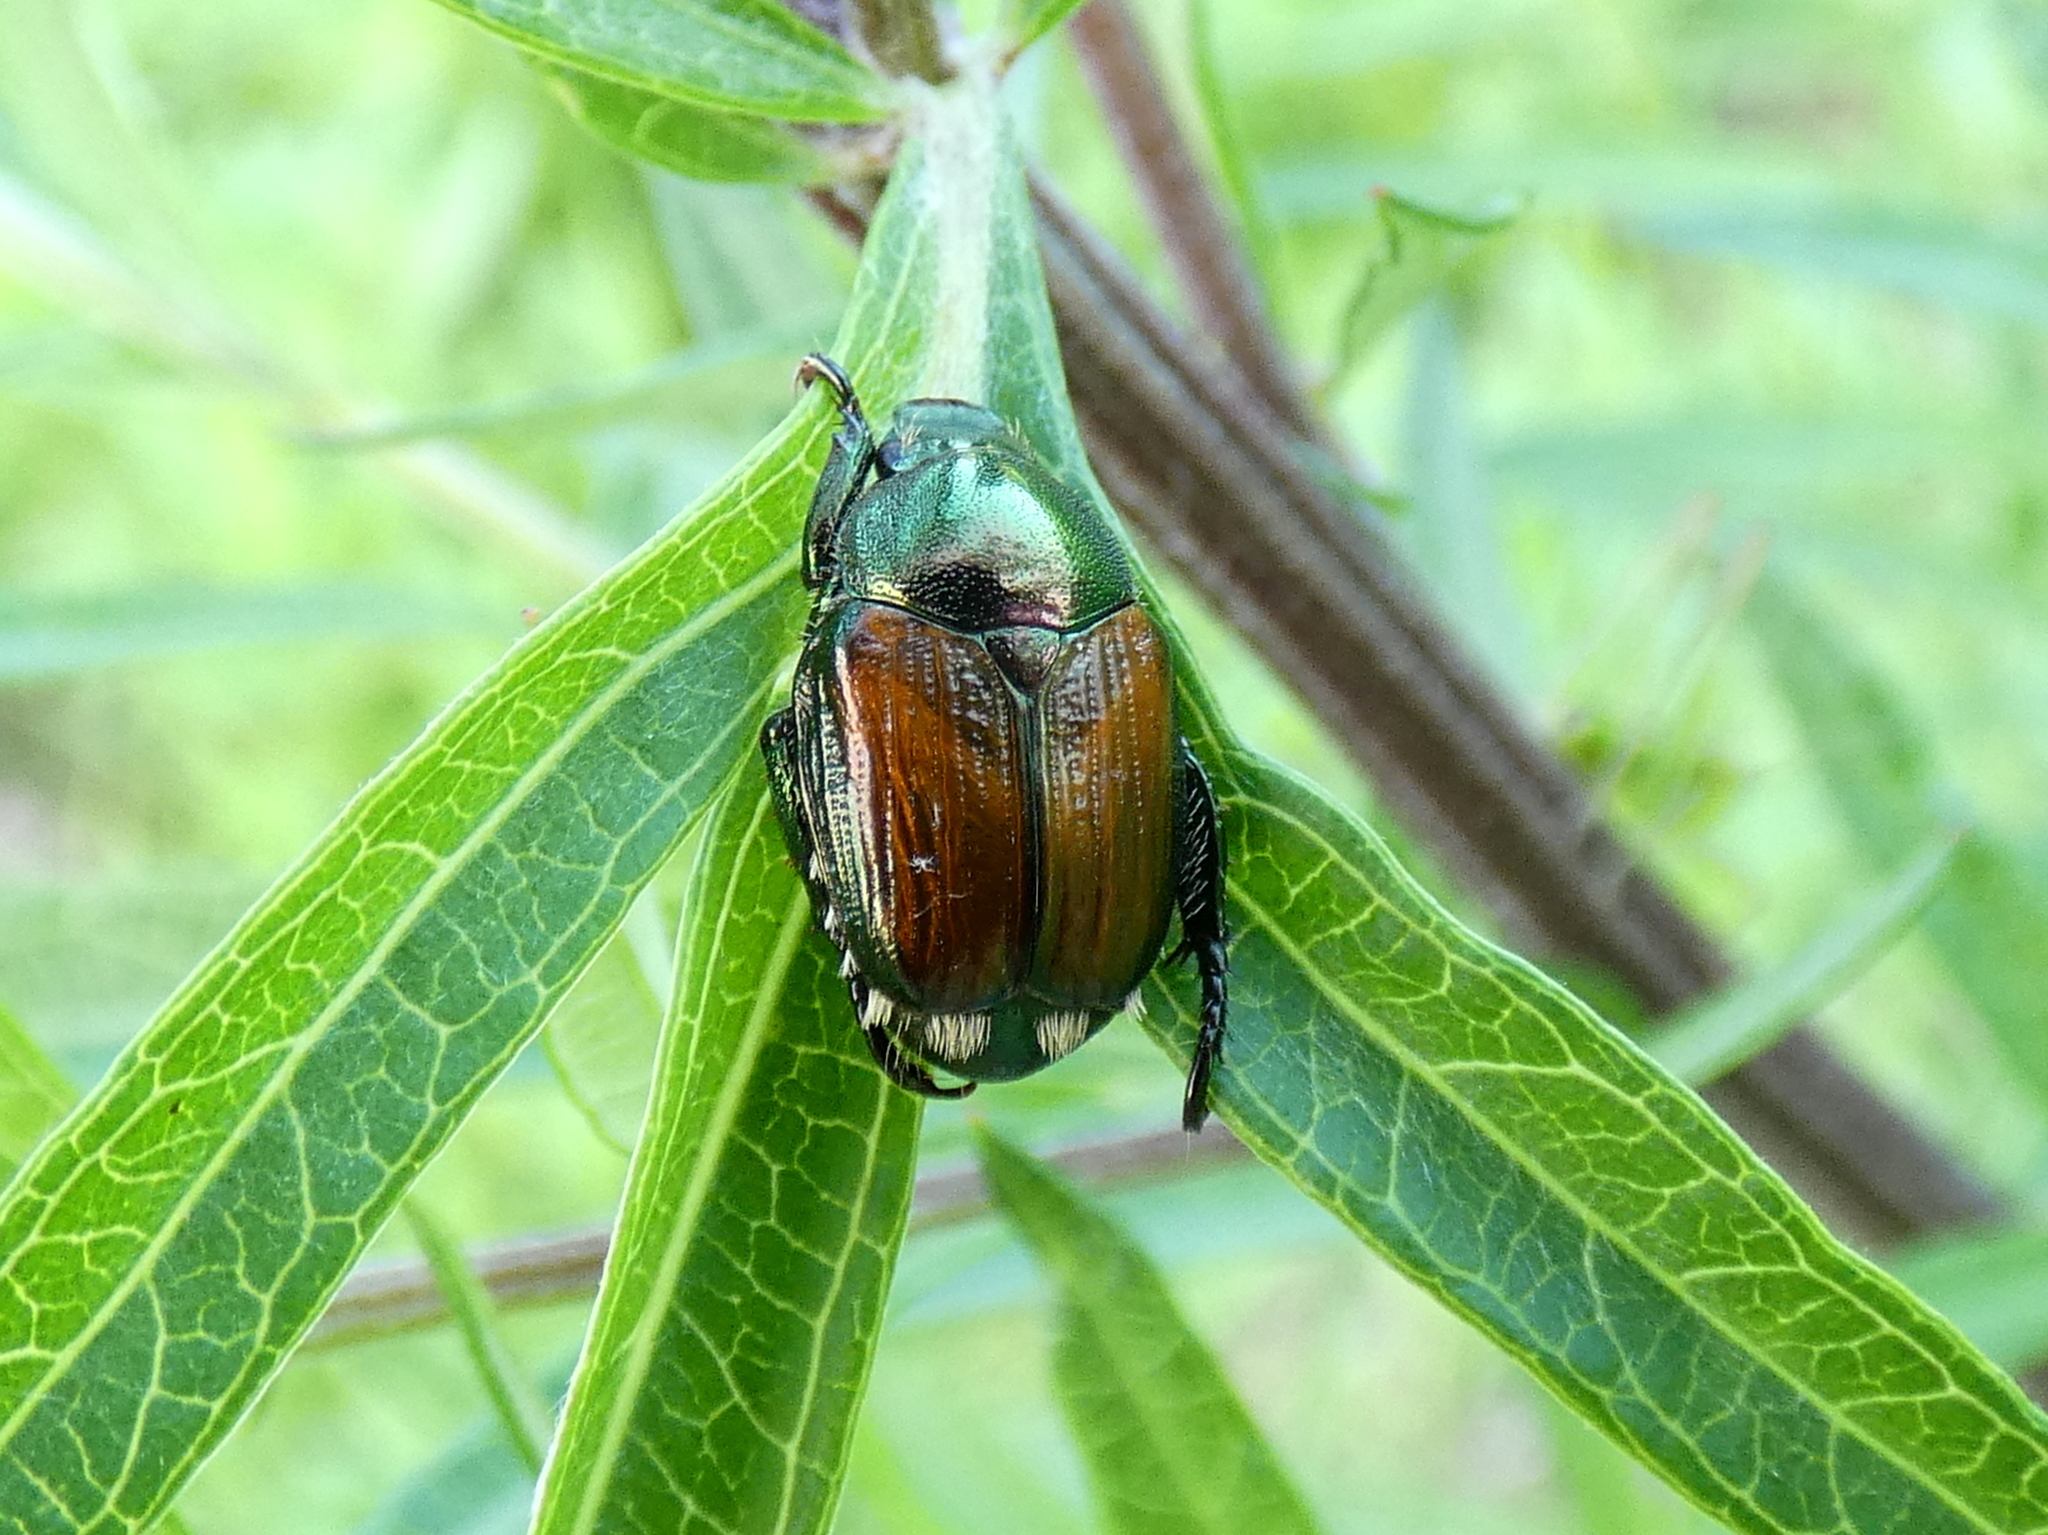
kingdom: Animalia
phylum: Arthropoda
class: Insecta
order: Coleoptera
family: Scarabaeidae
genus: Popillia
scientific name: Popillia japonica
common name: Japanese beetle
